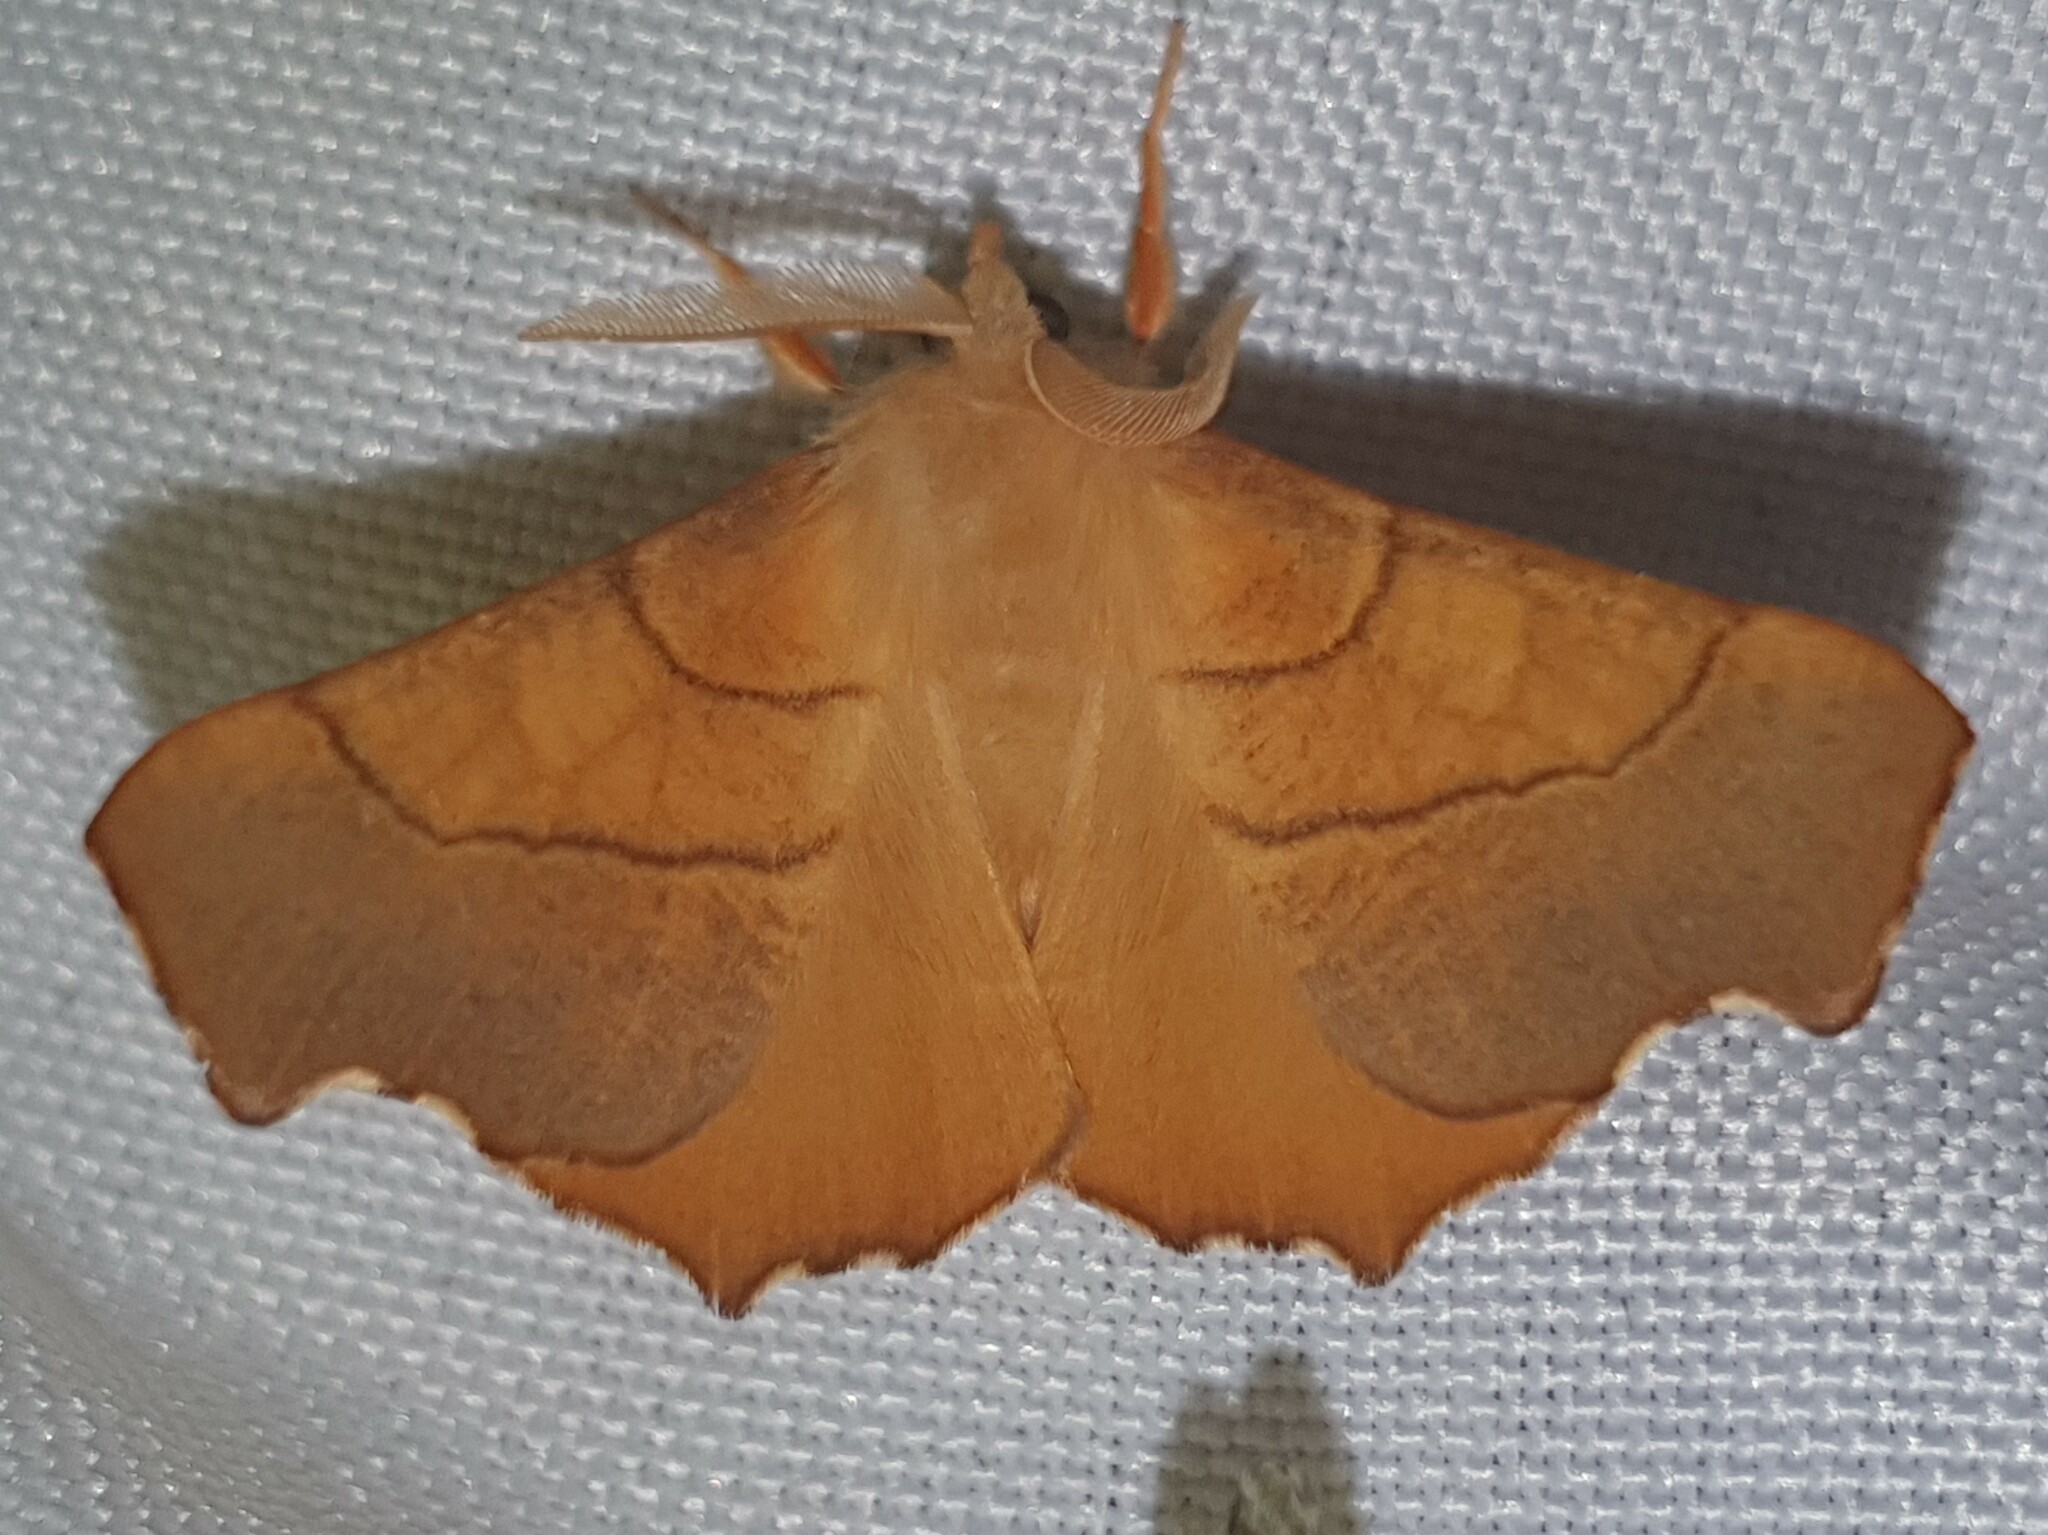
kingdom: Animalia
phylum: Arthropoda
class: Insecta
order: Lepidoptera
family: Geometridae
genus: Ennomos
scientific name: Ennomos fuscantaria
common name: Dusky thorn
